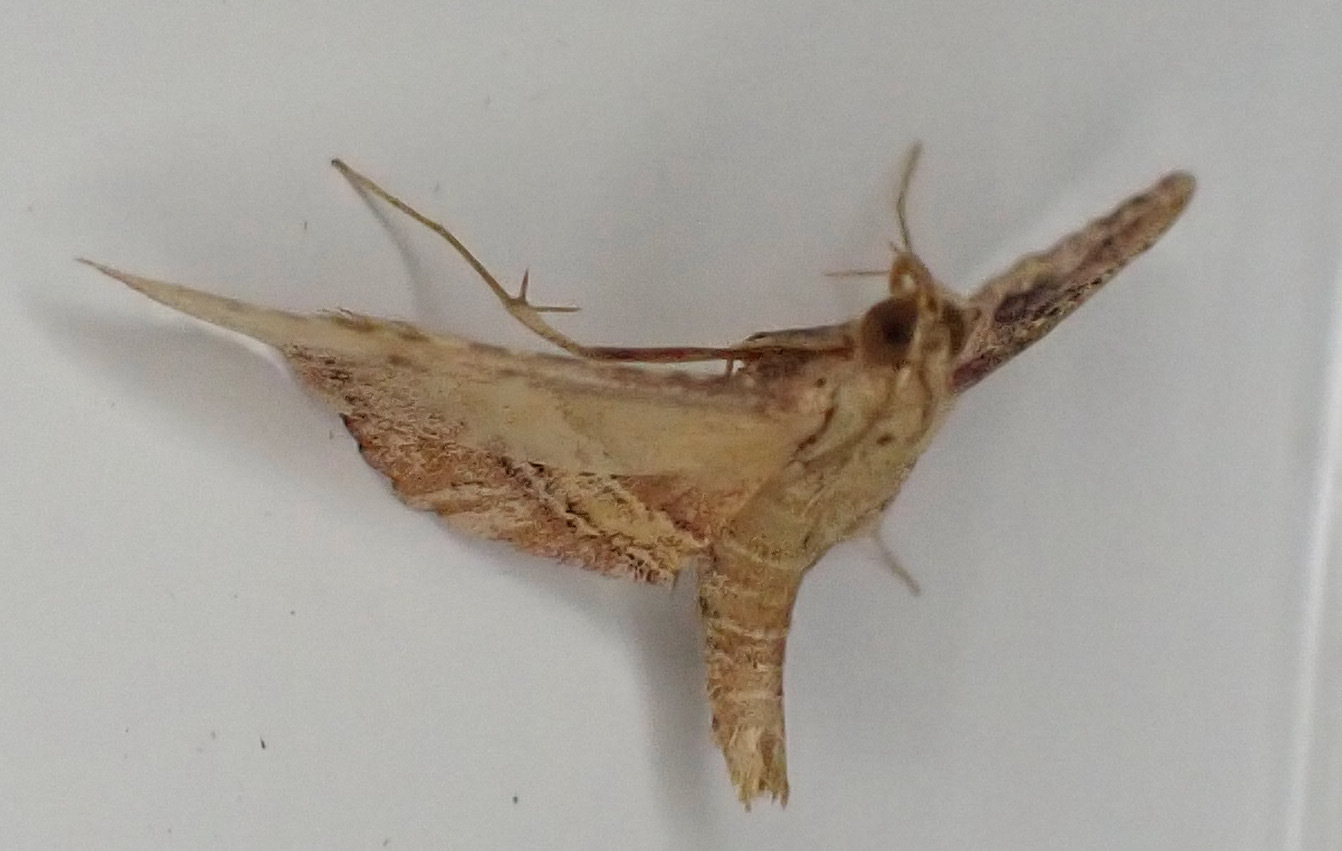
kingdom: Animalia
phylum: Arthropoda
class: Insecta
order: Lepidoptera
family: Pyralidae
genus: Endotricha
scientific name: Endotricha flammealis
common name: Rosy tabby
